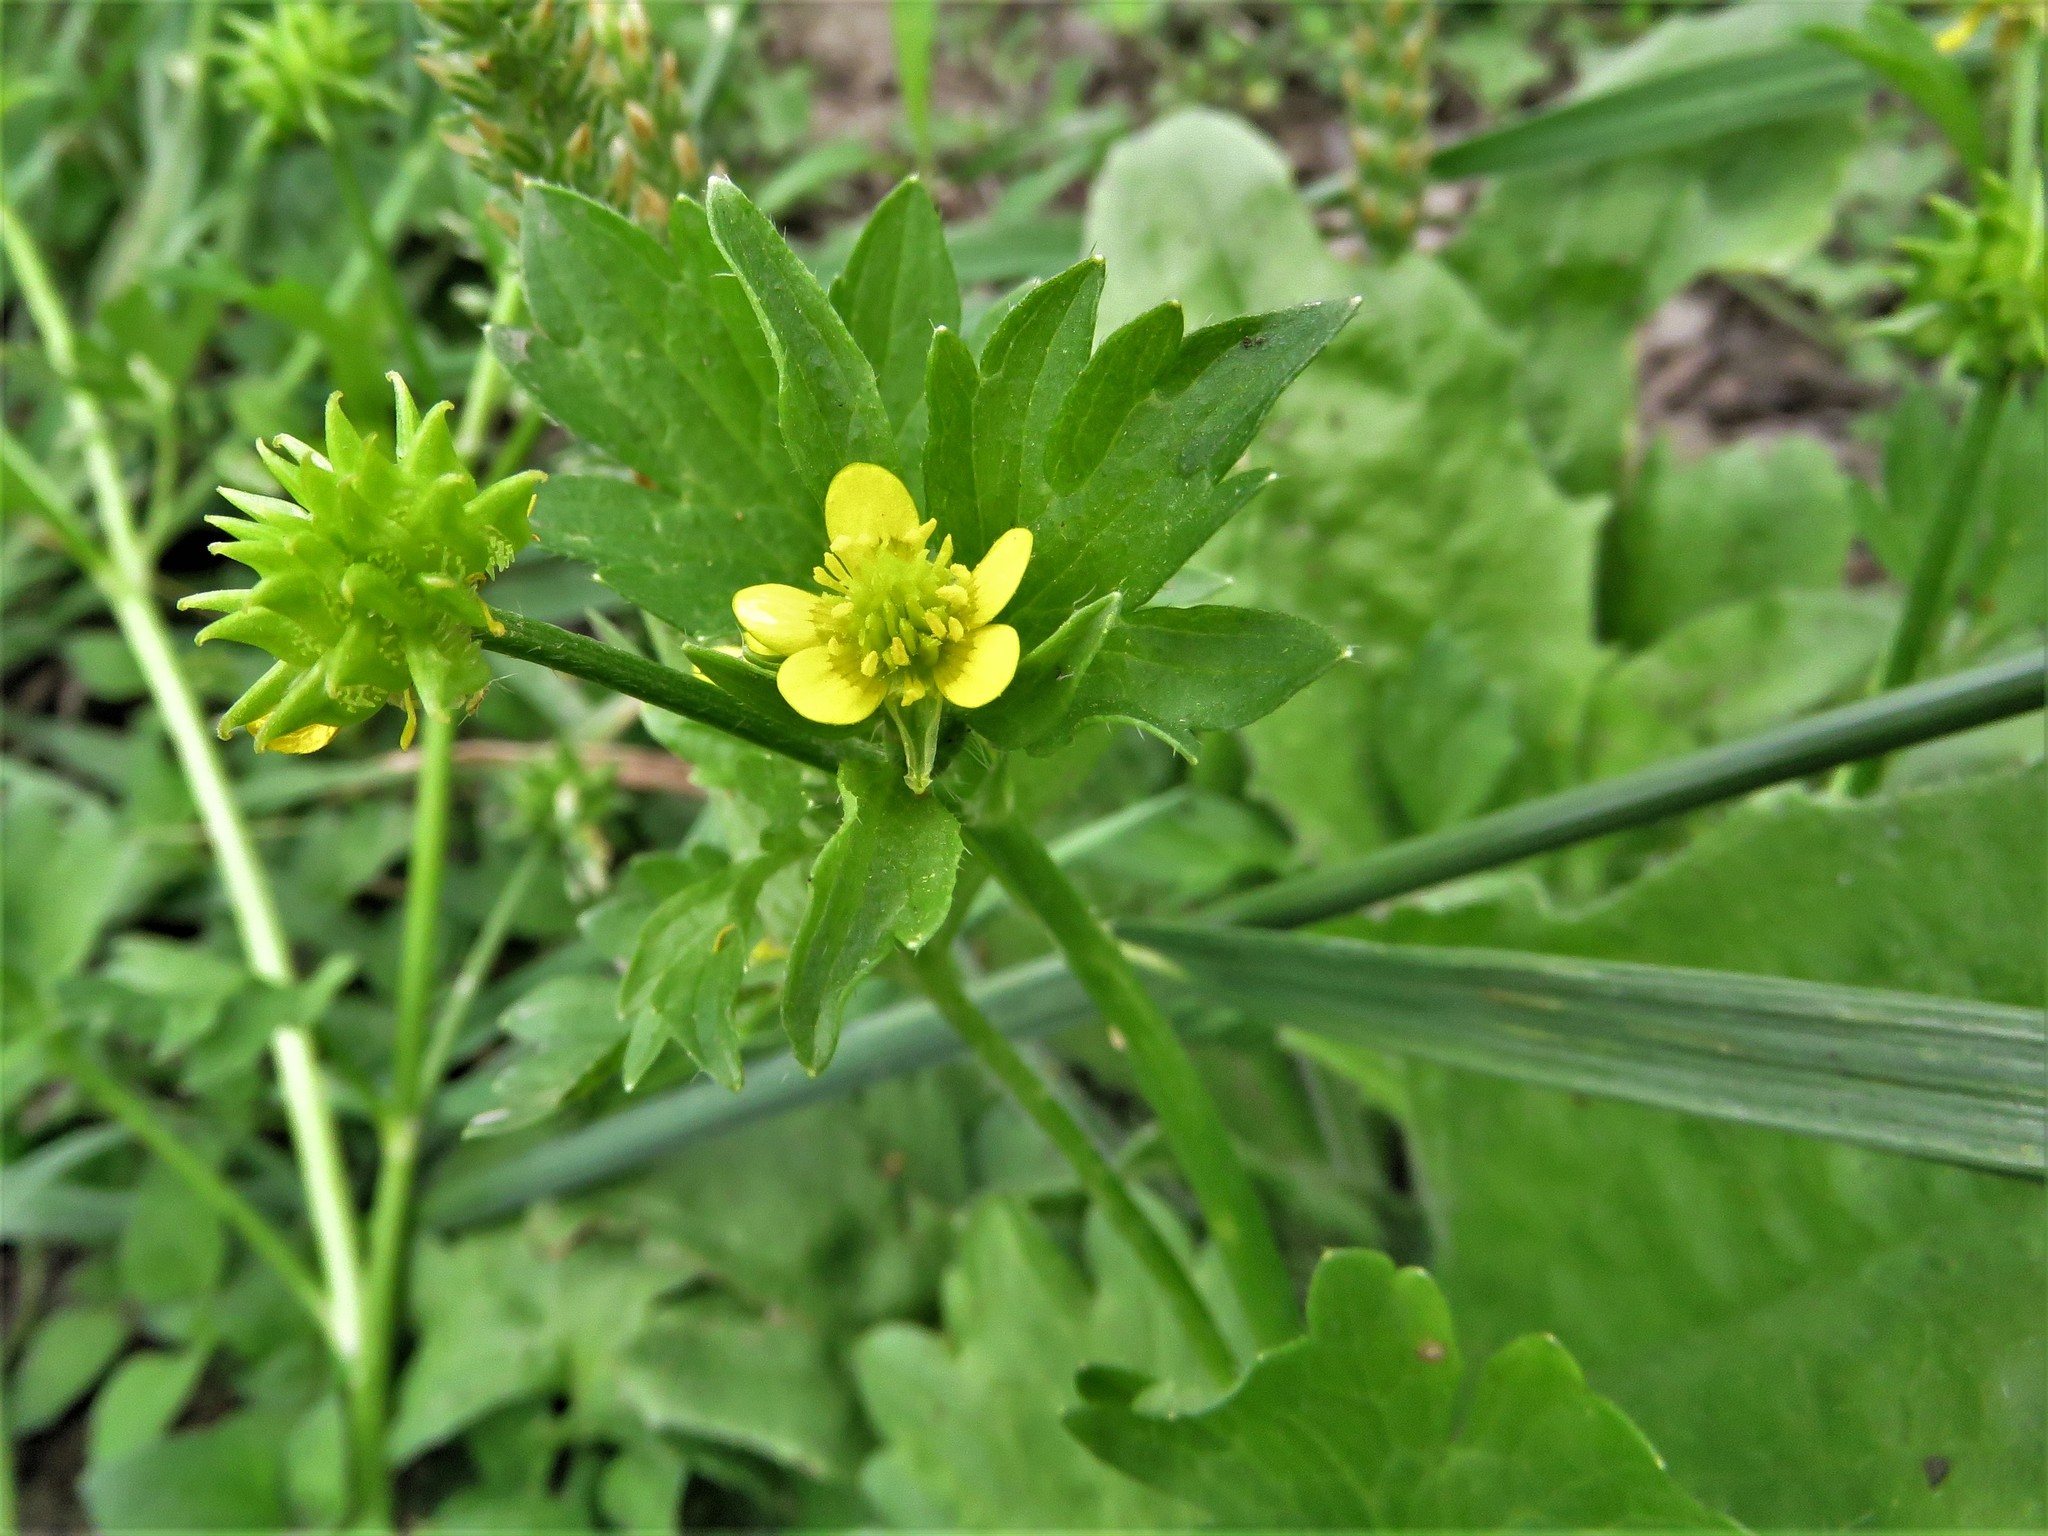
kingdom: Plantae
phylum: Tracheophyta
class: Magnoliopsida
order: Ranunculales
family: Ranunculaceae
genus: Ranunculus
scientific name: Ranunculus muricatus
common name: Rough-fruited buttercup
